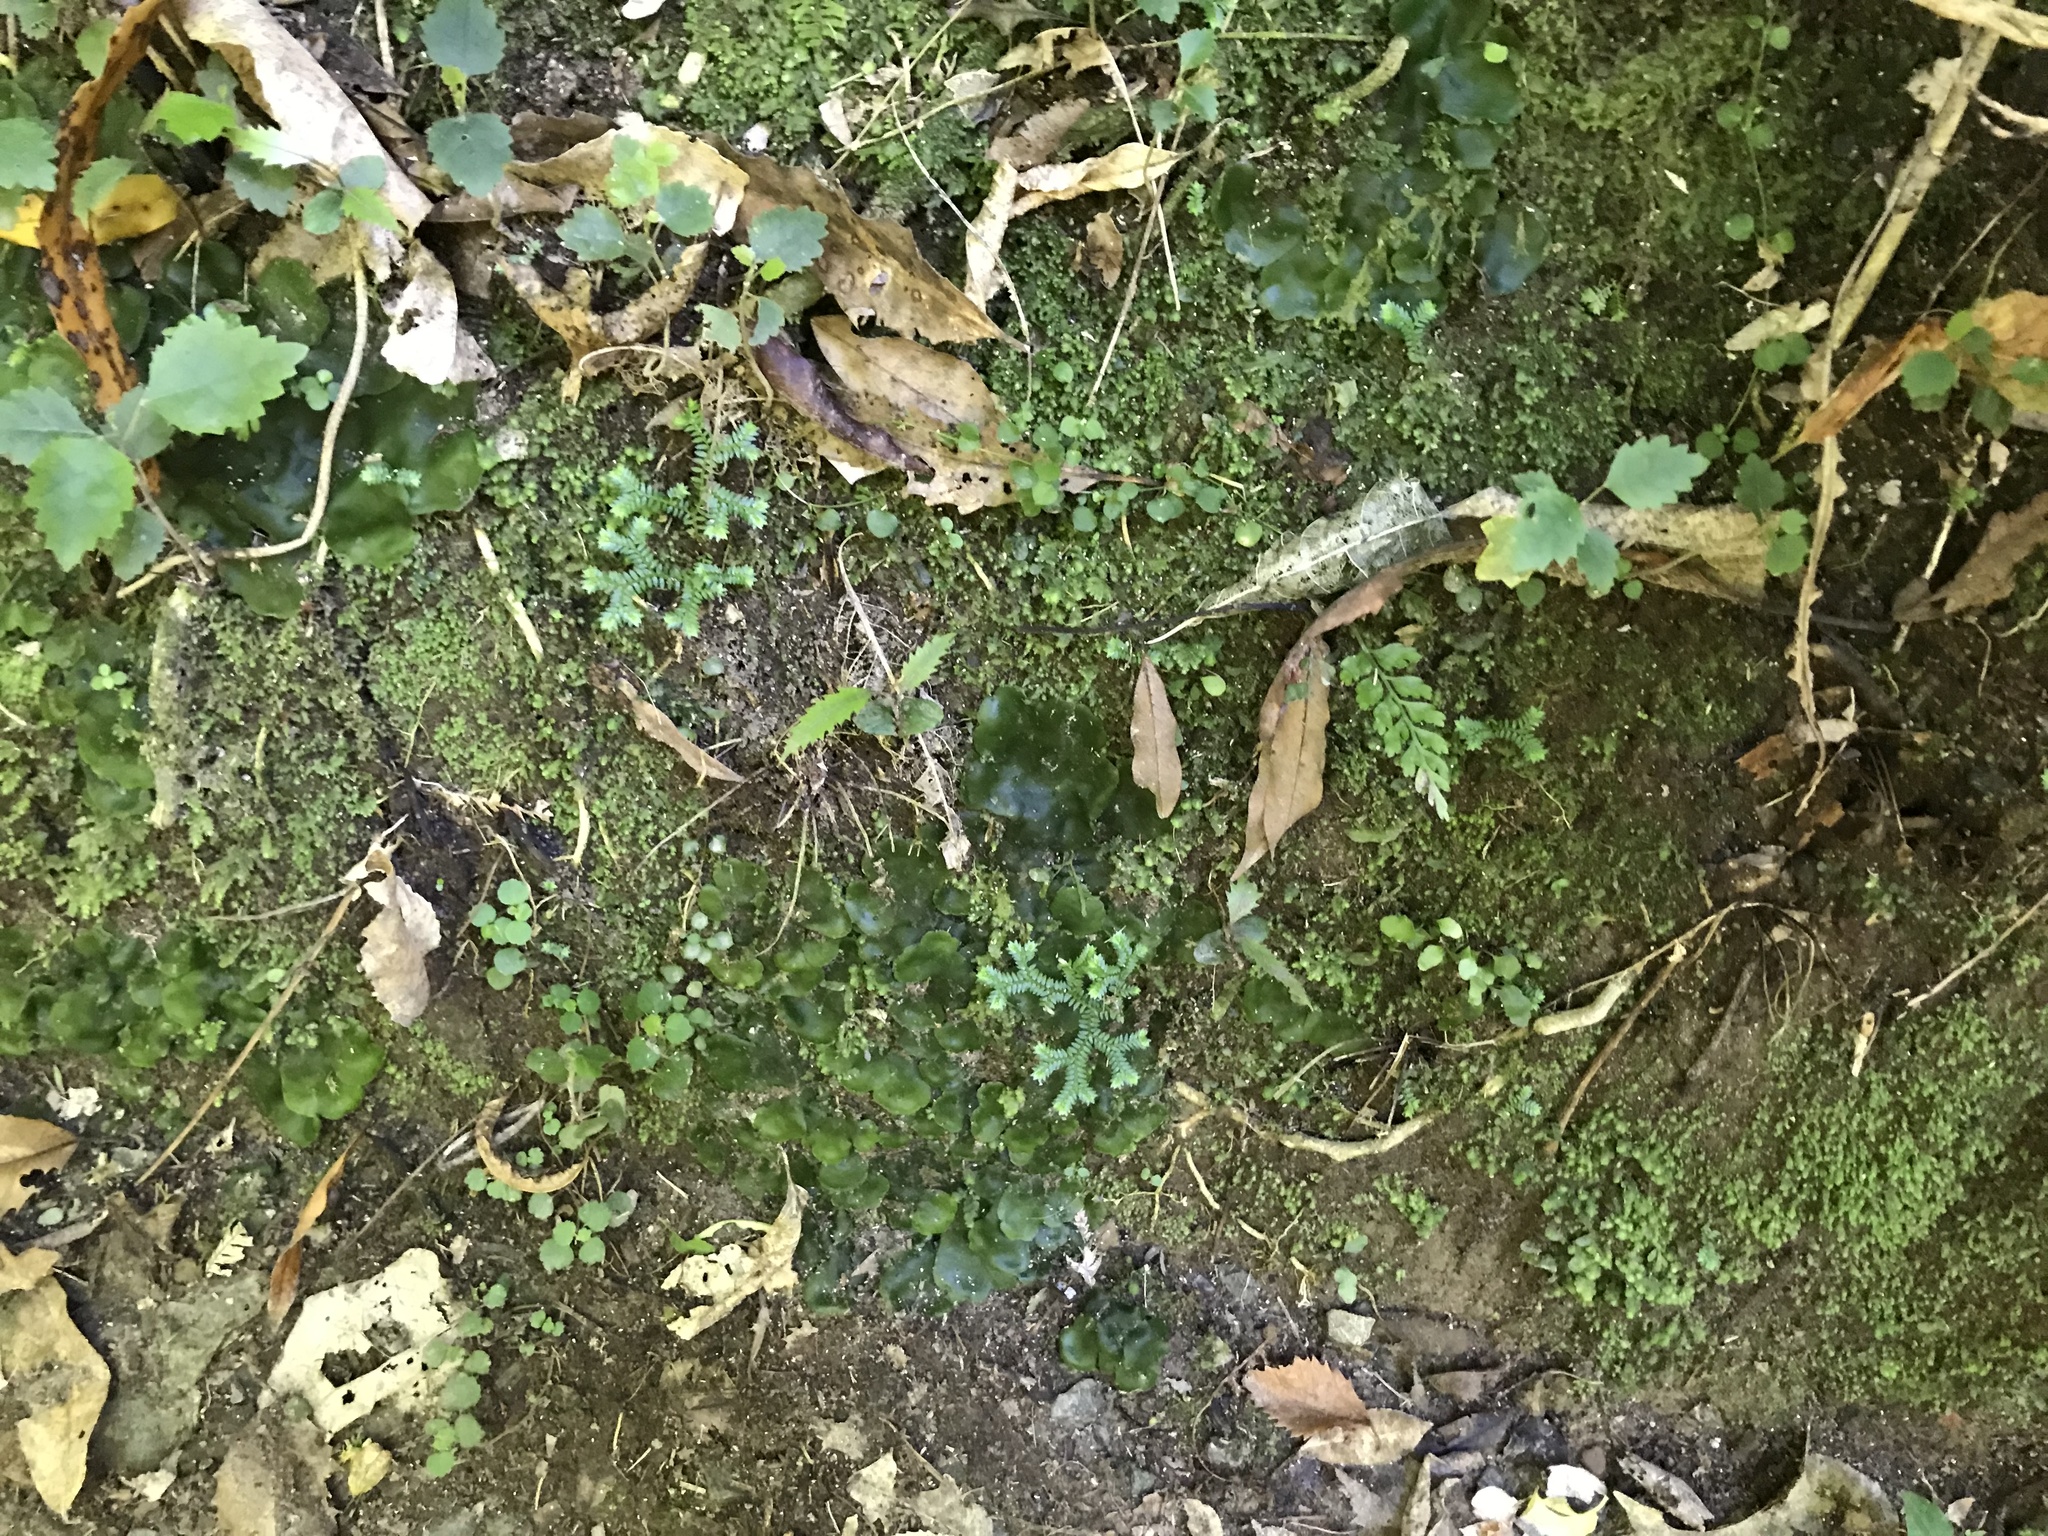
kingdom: Plantae
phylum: Tracheophyta
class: Lycopodiopsida
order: Selaginellales
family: Selaginellaceae
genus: Selaginella
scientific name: Selaginella kraussiana
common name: Krauss' spikemoss
